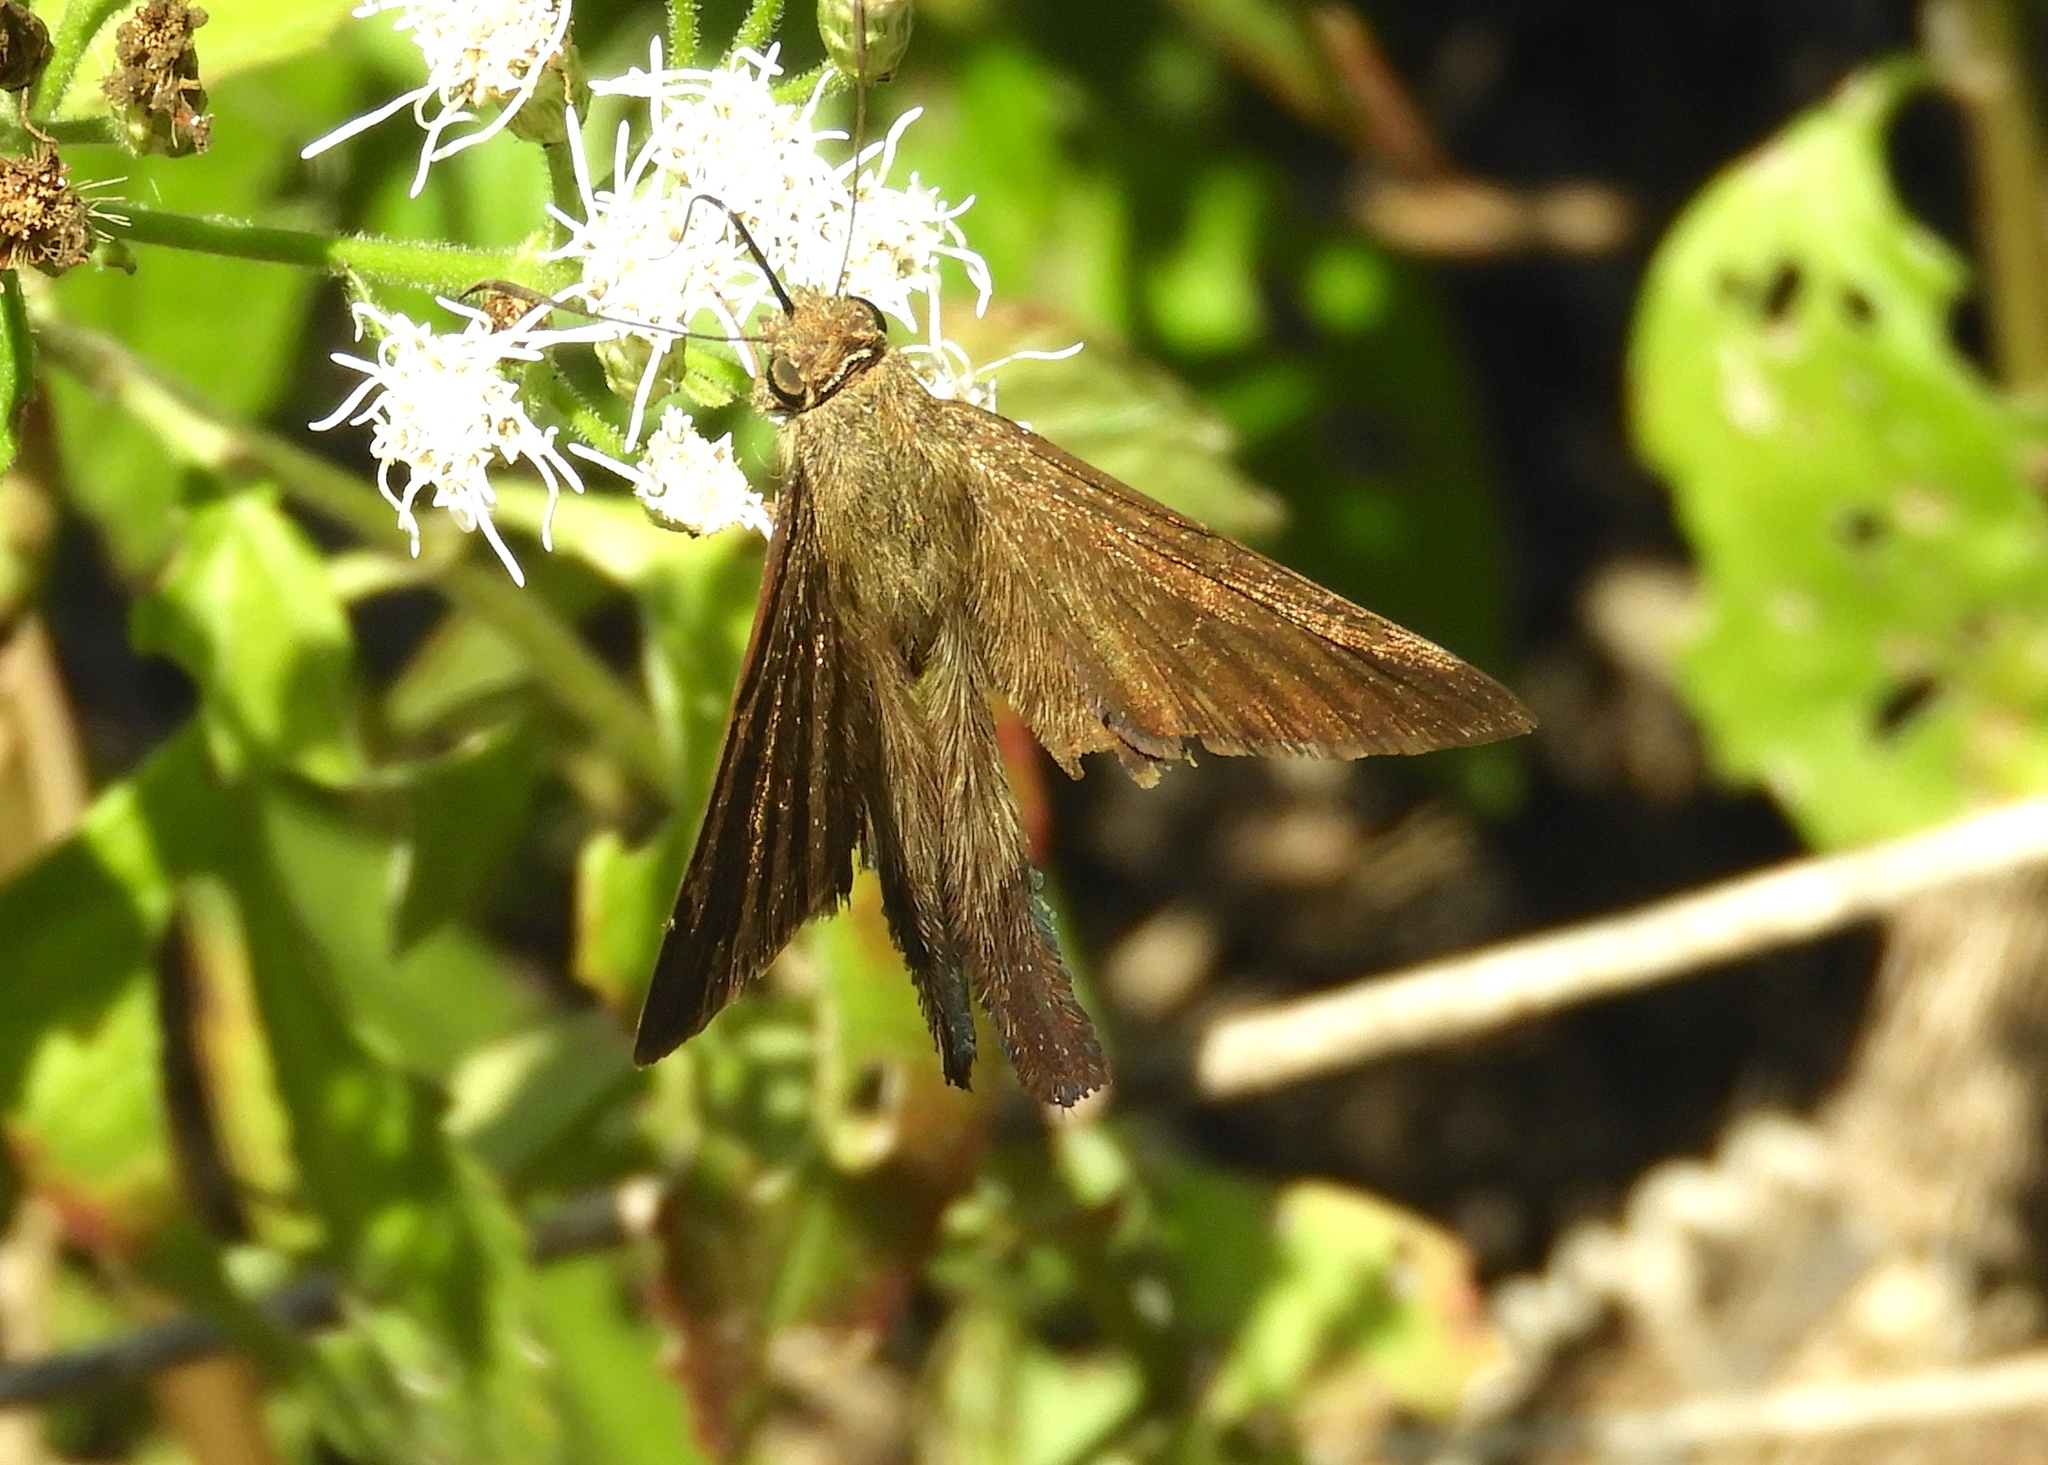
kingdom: Animalia
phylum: Arthropoda
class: Insecta
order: Lepidoptera
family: Hesperiidae
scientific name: Hesperiidae
